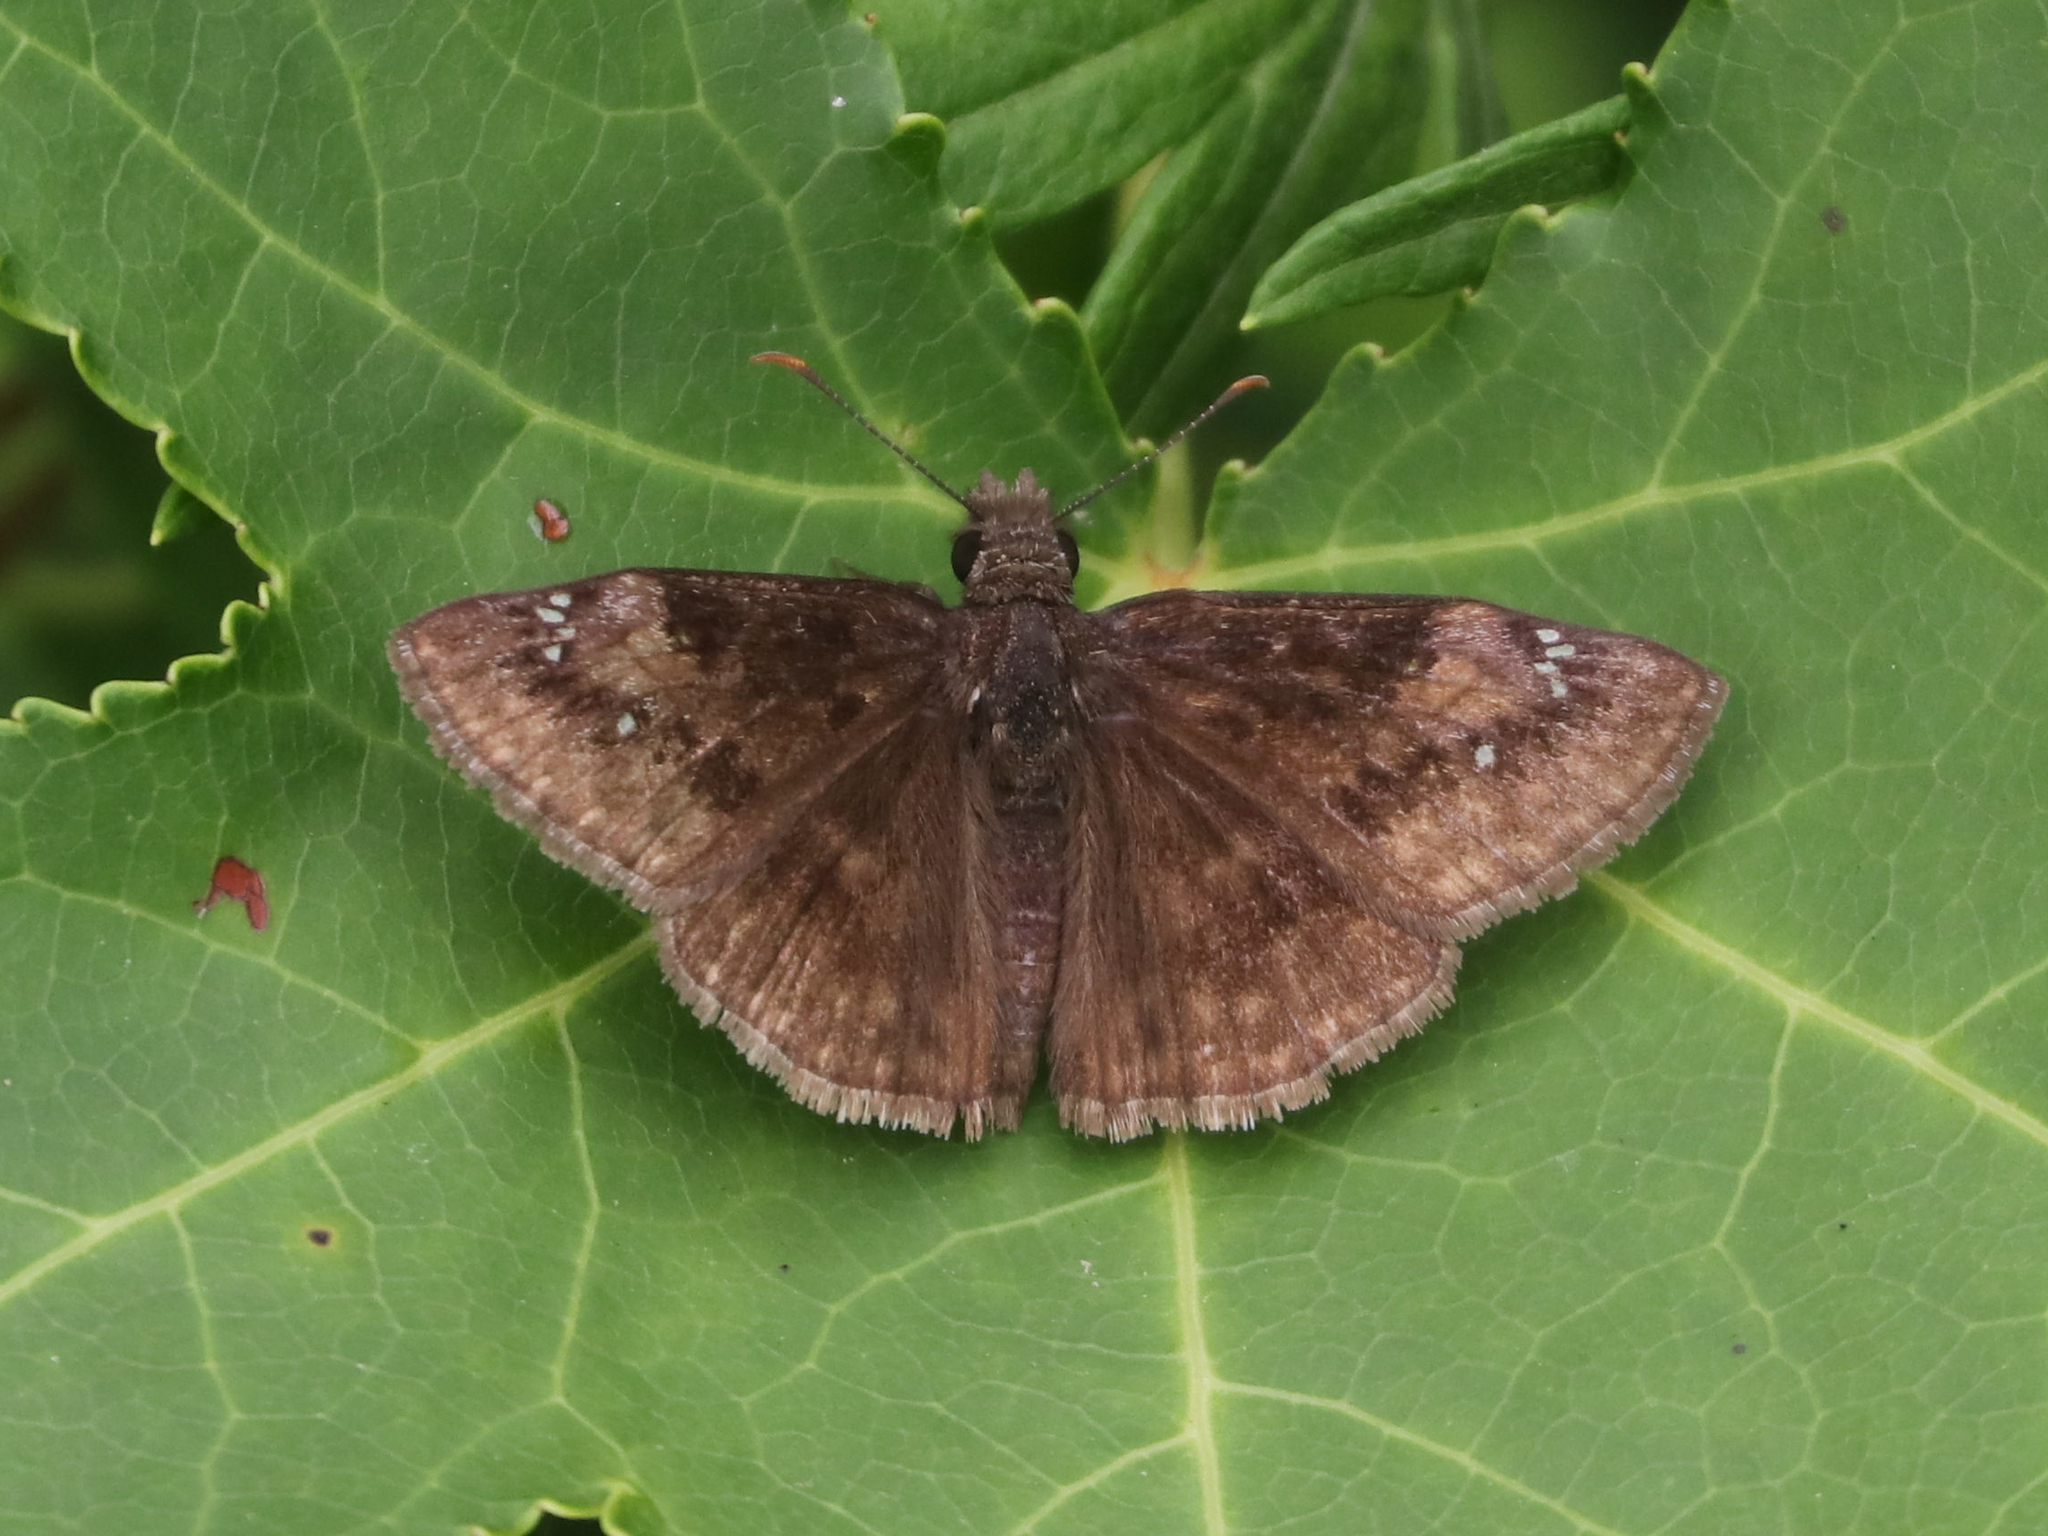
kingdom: Animalia
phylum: Arthropoda
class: Insecta
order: Lepidoptera
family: Hesperiidae
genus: Erynnis
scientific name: Erynnis baptisiae
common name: Wild indigo duskywing
